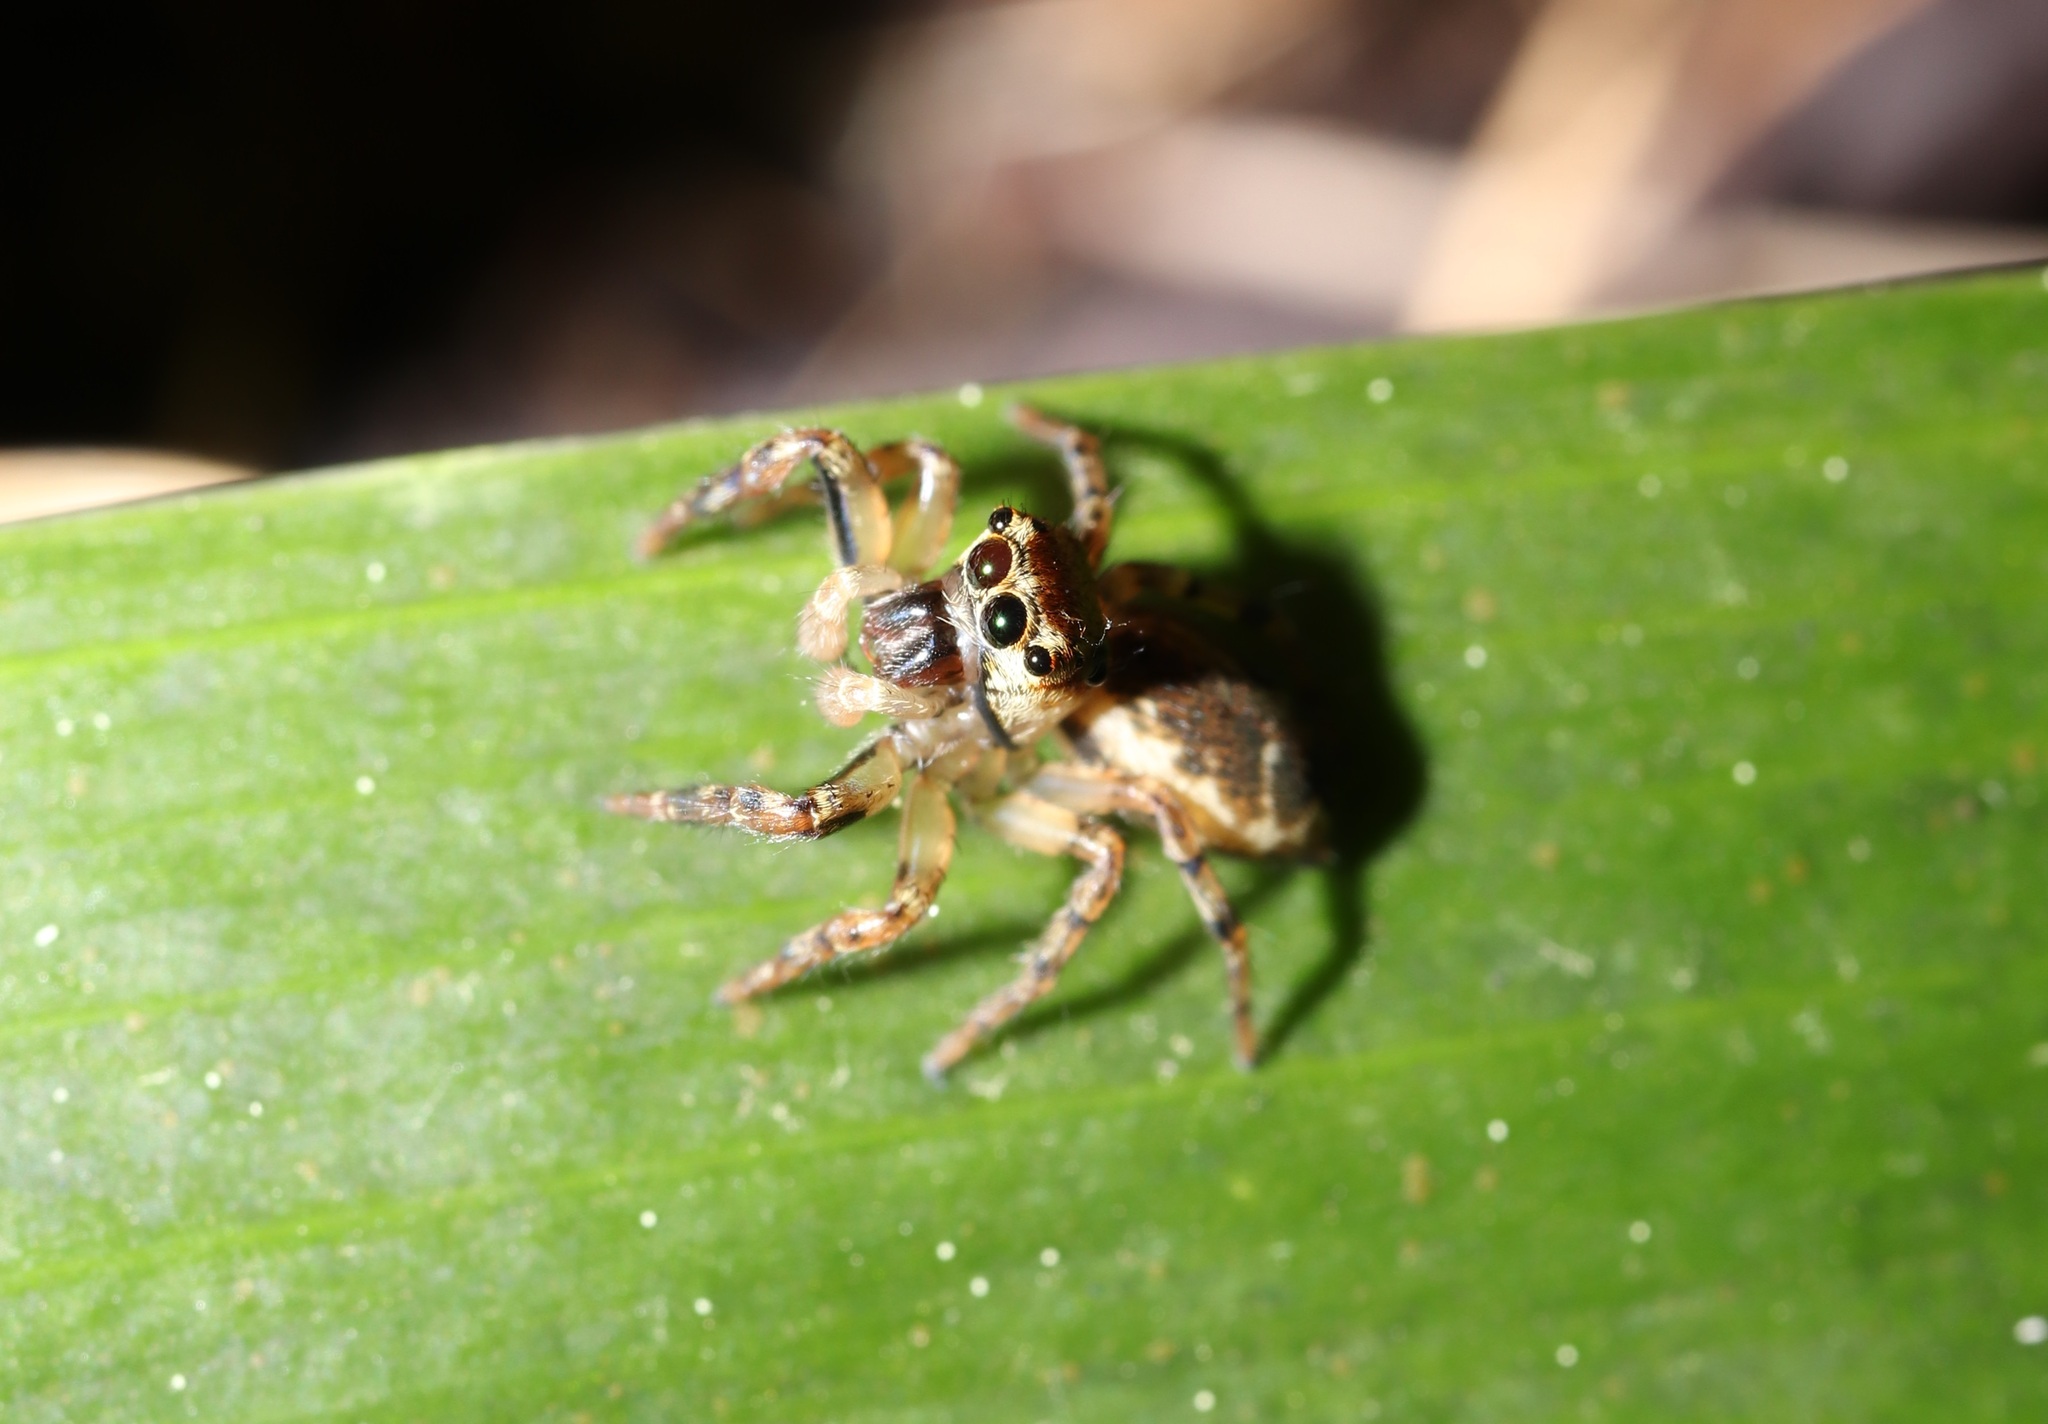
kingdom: Animalia
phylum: Arthropoda
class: Arachnida
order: Araneae
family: Salticidae
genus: Yaginumaella
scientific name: Yaginumaella striatipes
